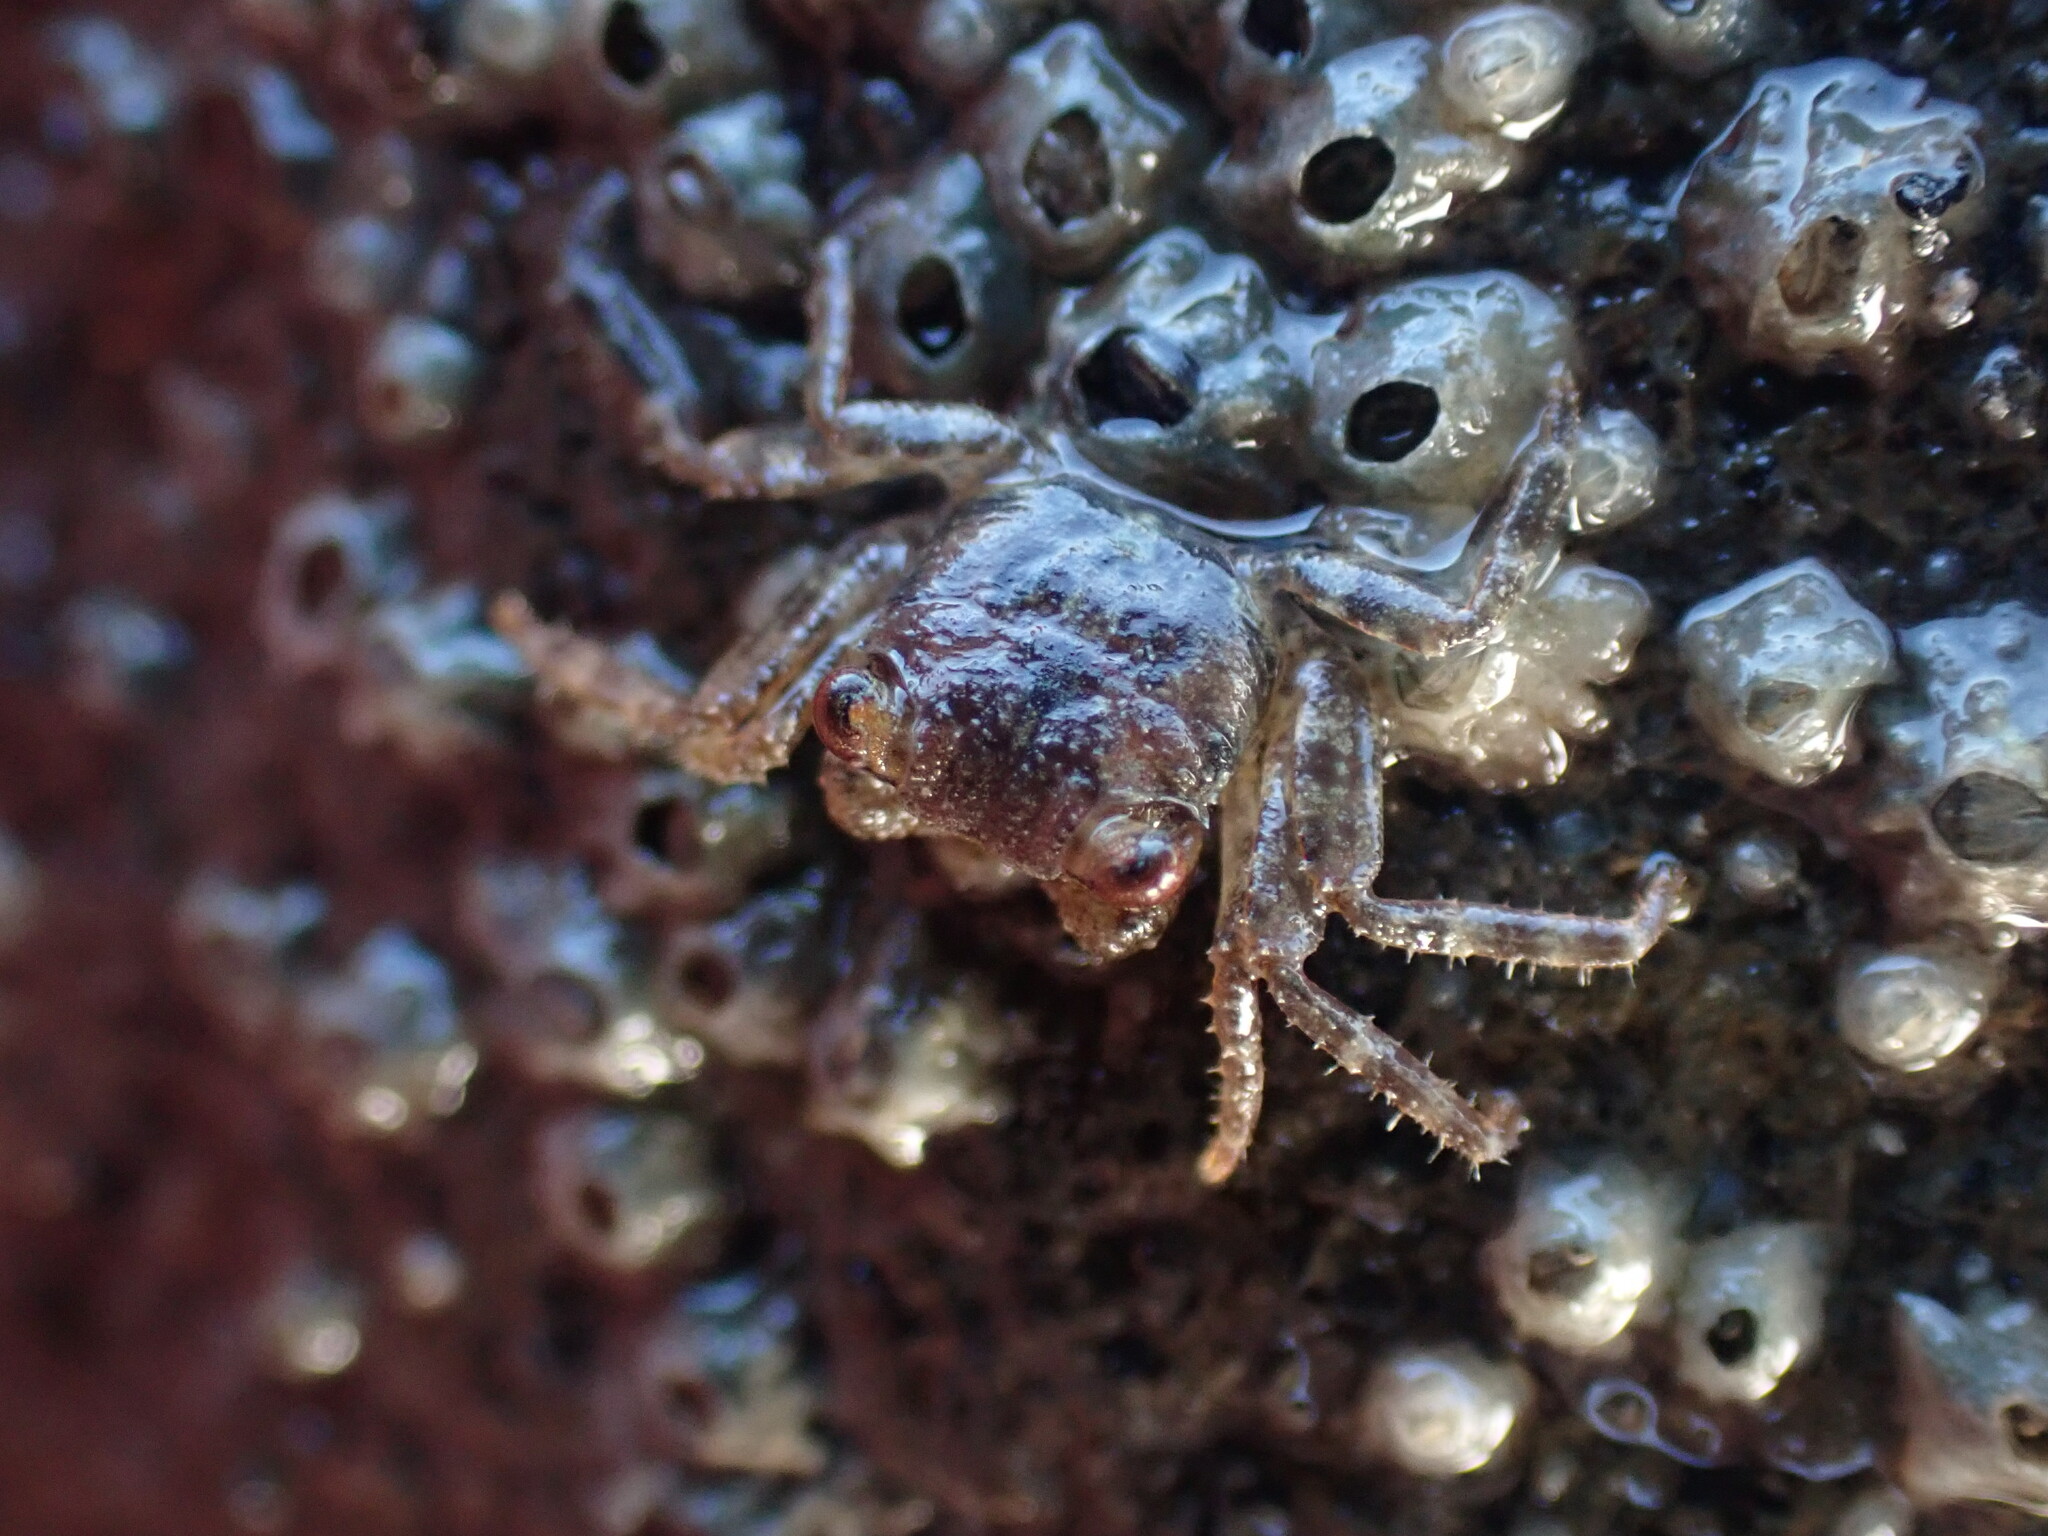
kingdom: Animalia
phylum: Arthropoda
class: Malacostraca
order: Decapoda
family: Grapsidae
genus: Leptograpsus
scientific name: Leptograpsus variegatus
